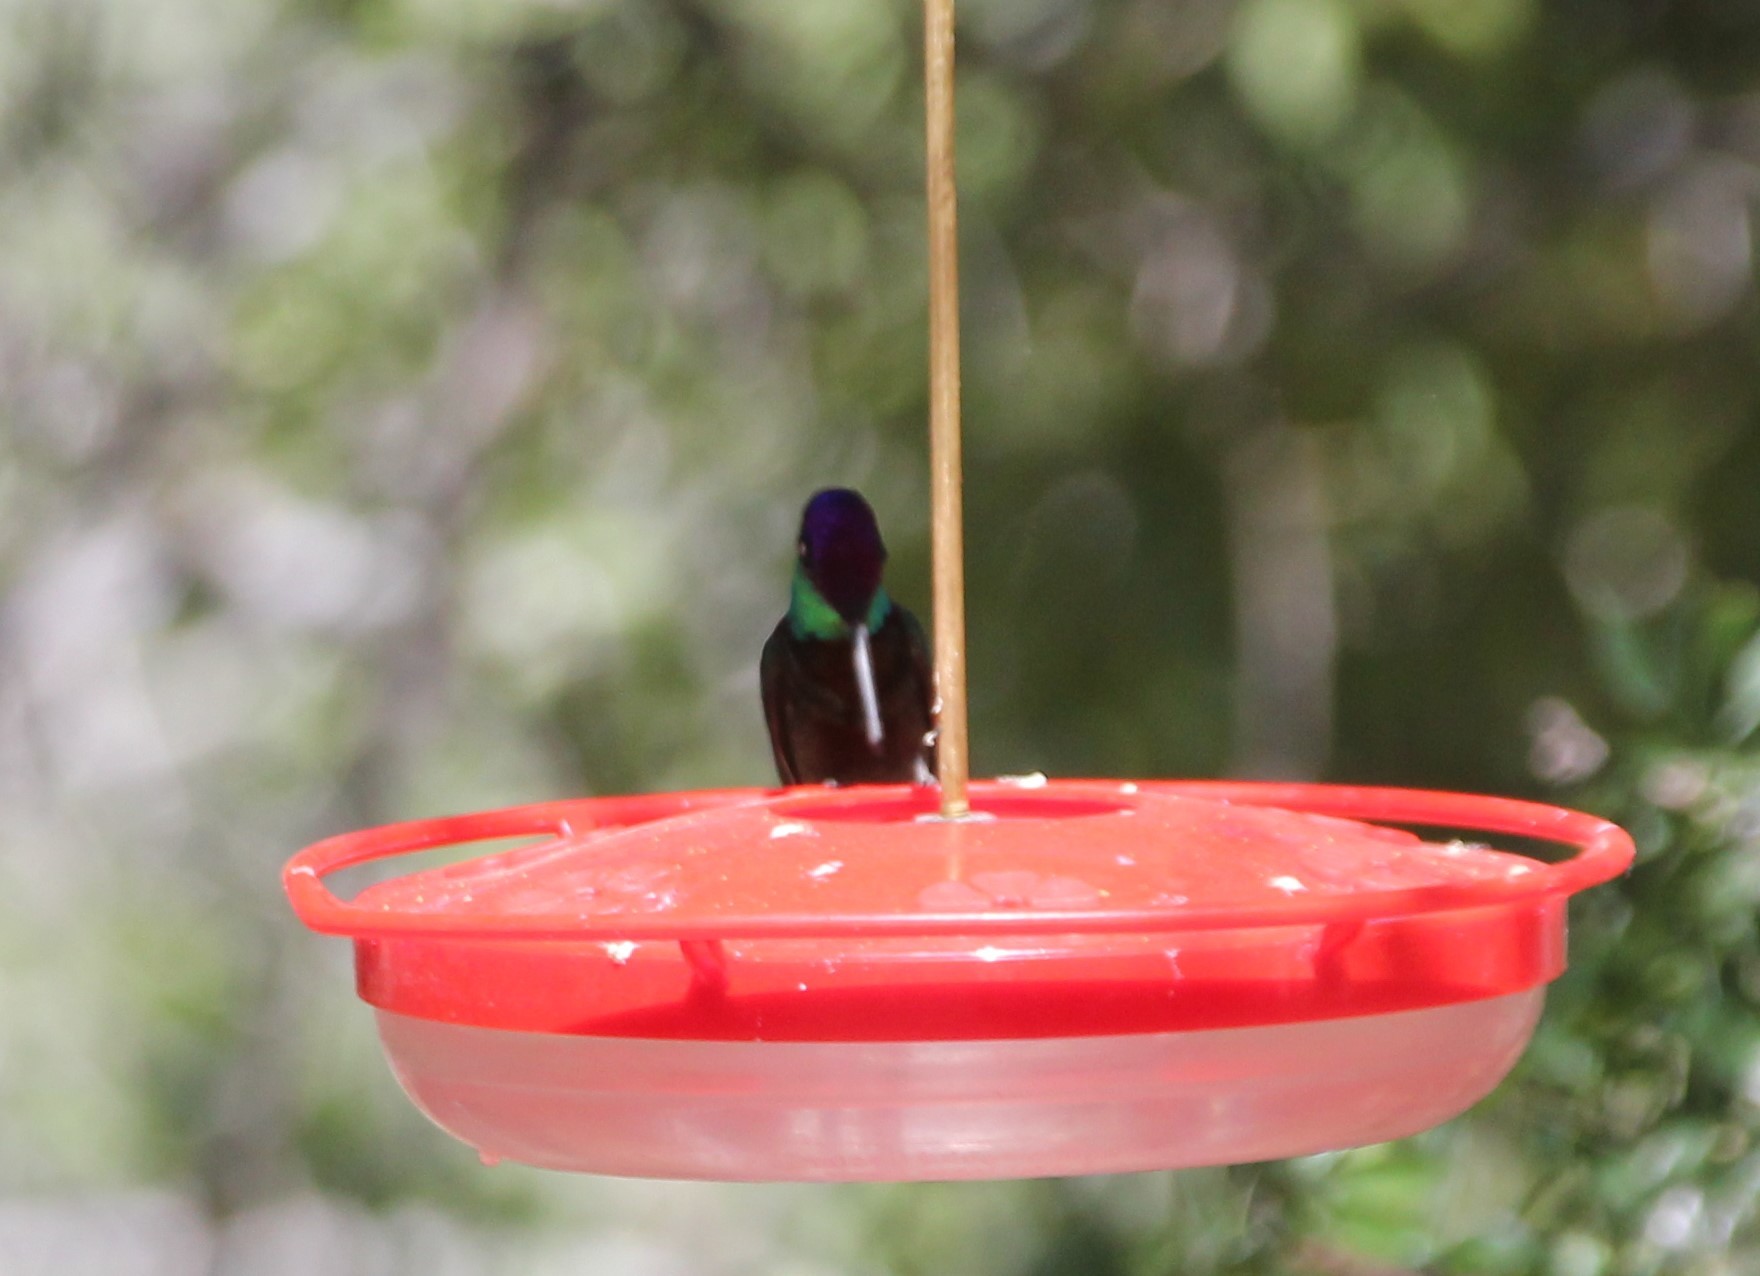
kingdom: Animalia
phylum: Chordata
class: Aves
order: Apodiformes
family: Trochilidae
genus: Eugenes
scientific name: Eugenes fulgens
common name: Magnificent hummingbird
